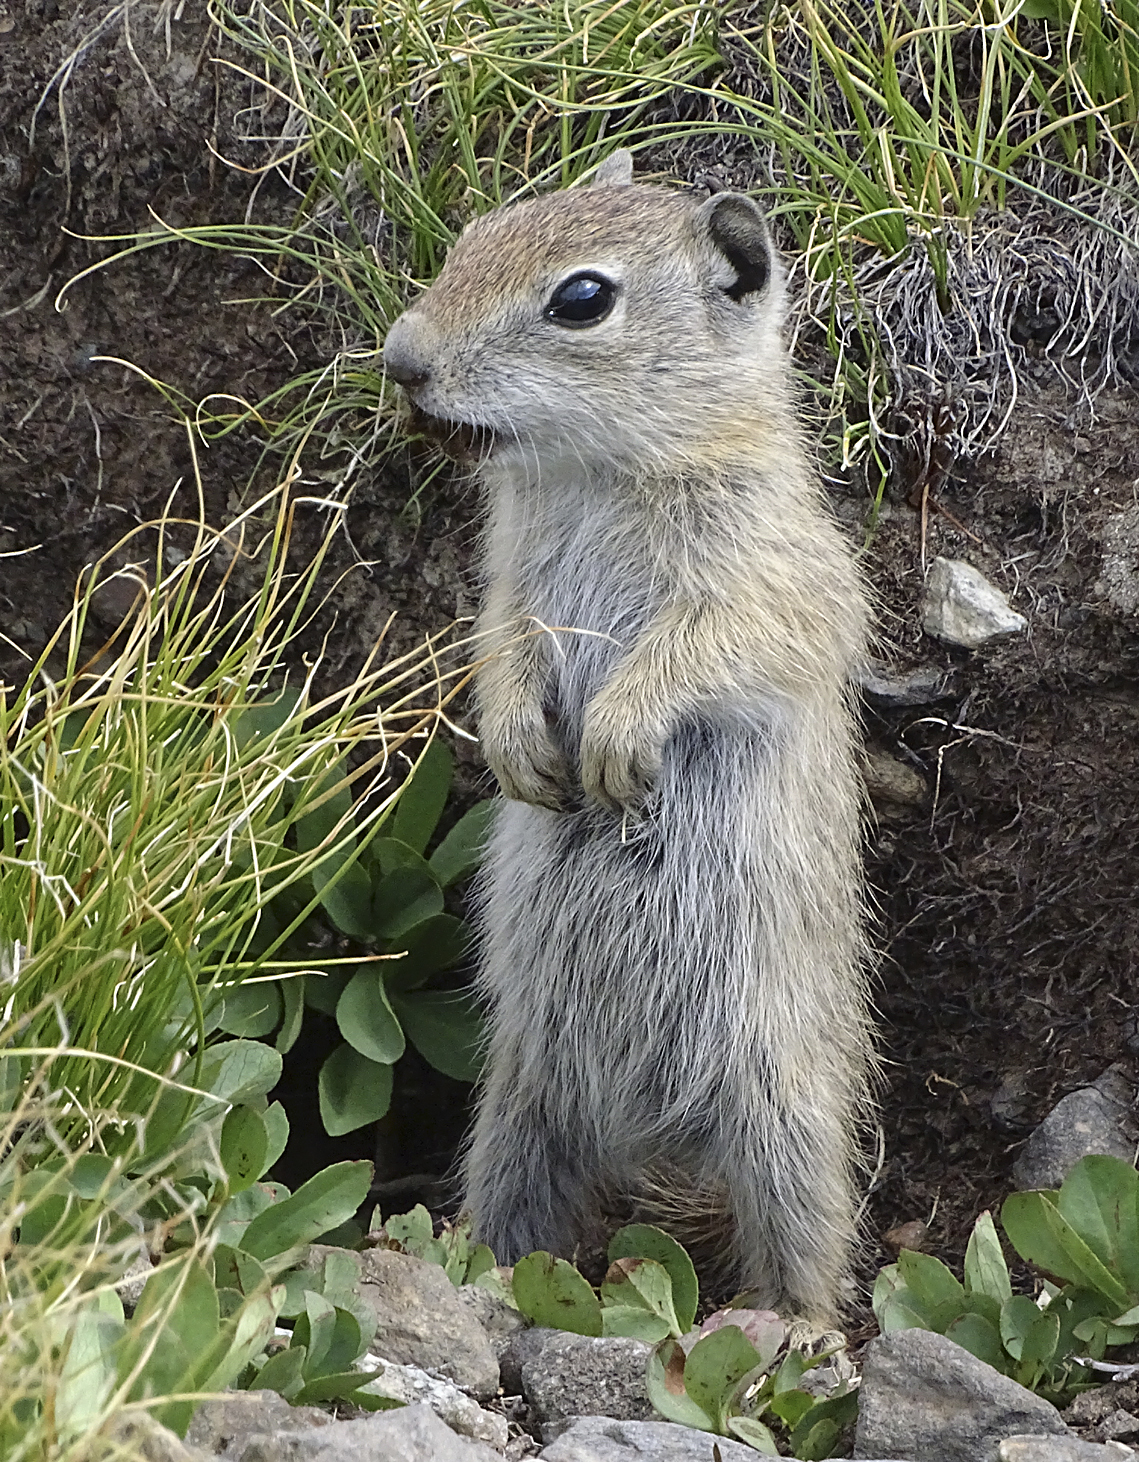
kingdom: Animalia
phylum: Chordata
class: Mammalia
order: Rodentia
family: Sciuridae
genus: Urocitellus
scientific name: Urocitellus beldingi
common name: Belding's ground squirrel
